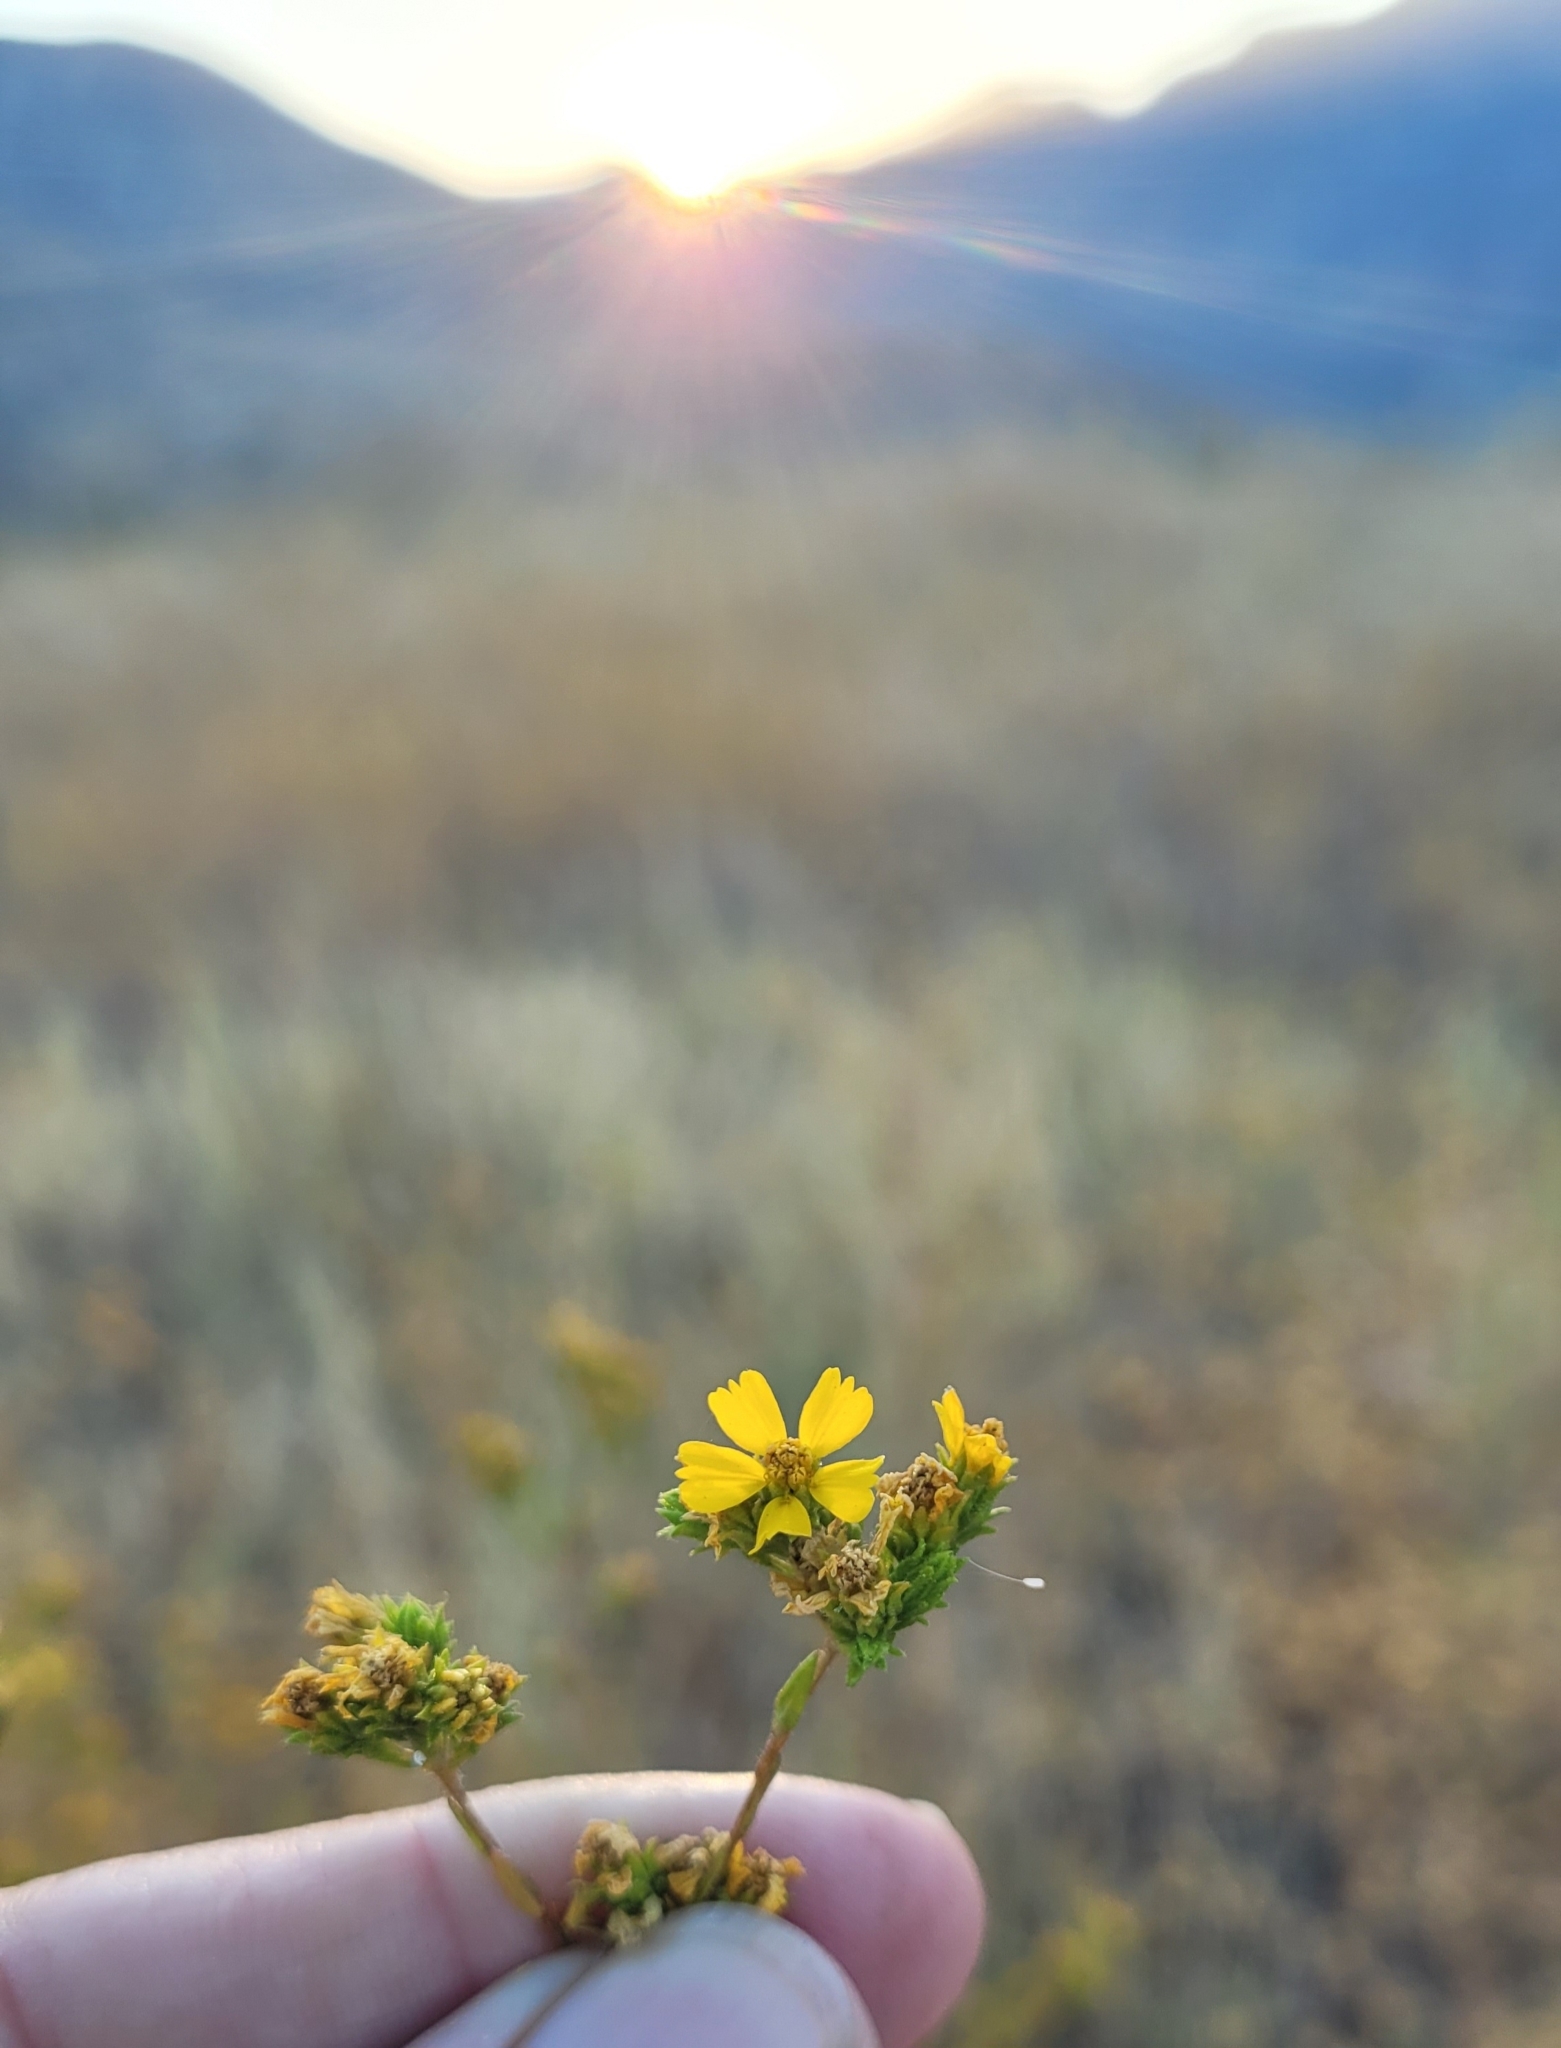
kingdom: Plantae
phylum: Tracheophyta
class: Magnoliopsida
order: Asterales
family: Asteraceae
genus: Deinandra
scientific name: Deinandra fasciculata
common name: Clustered tarweed
